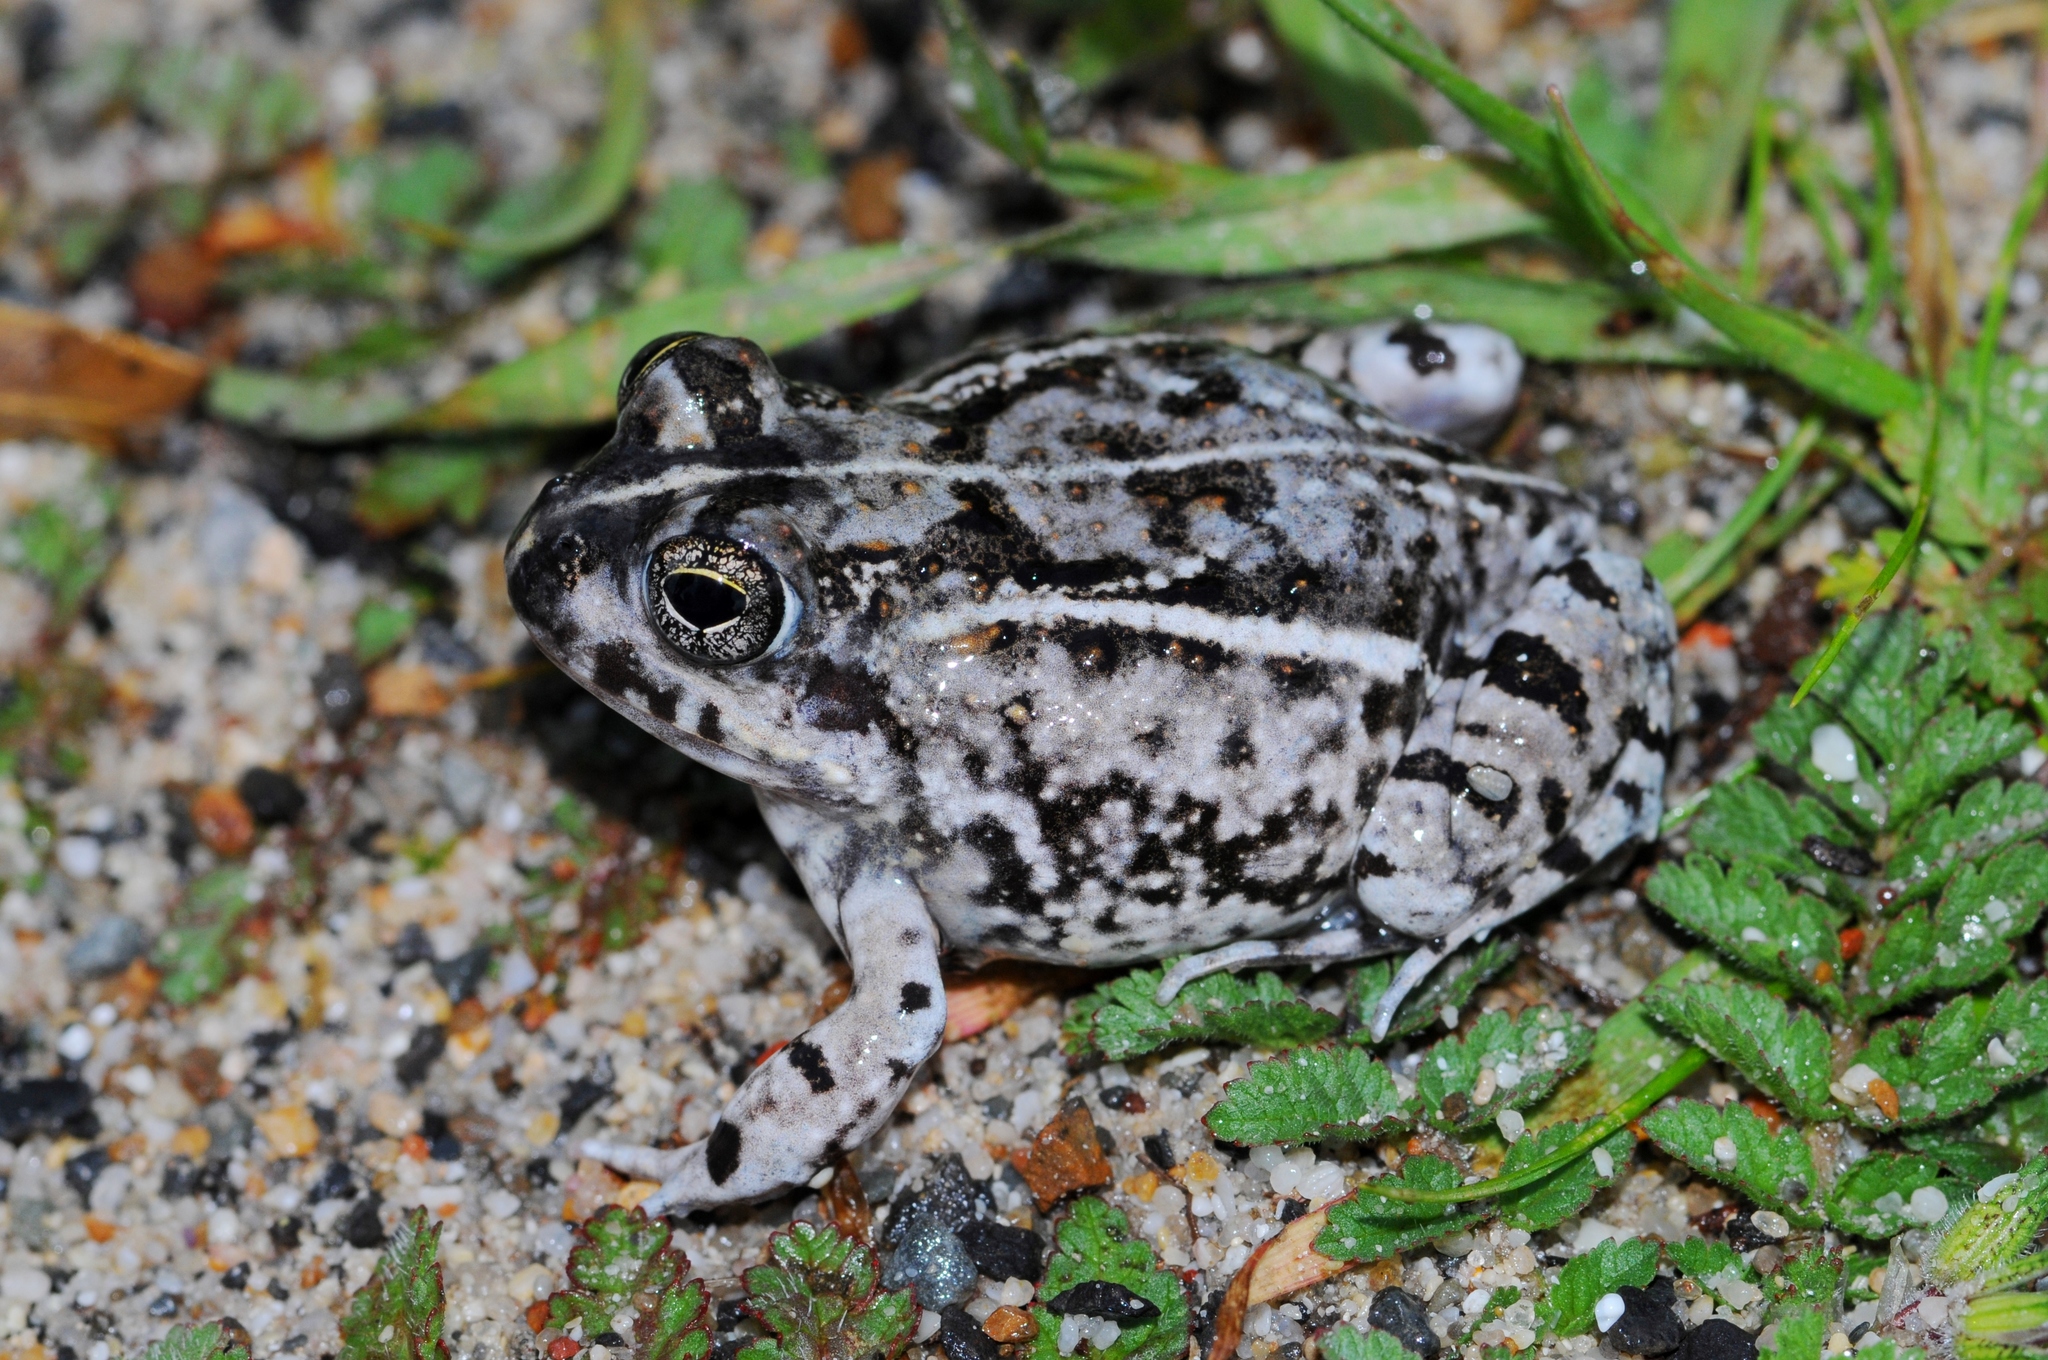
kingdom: Animalia
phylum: Chordata
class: Amphibia
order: Anura
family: Pyxicephalidae
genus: Tomopterna
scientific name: Tomopterna delalandii
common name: Delalande's burrowing bullfrog
